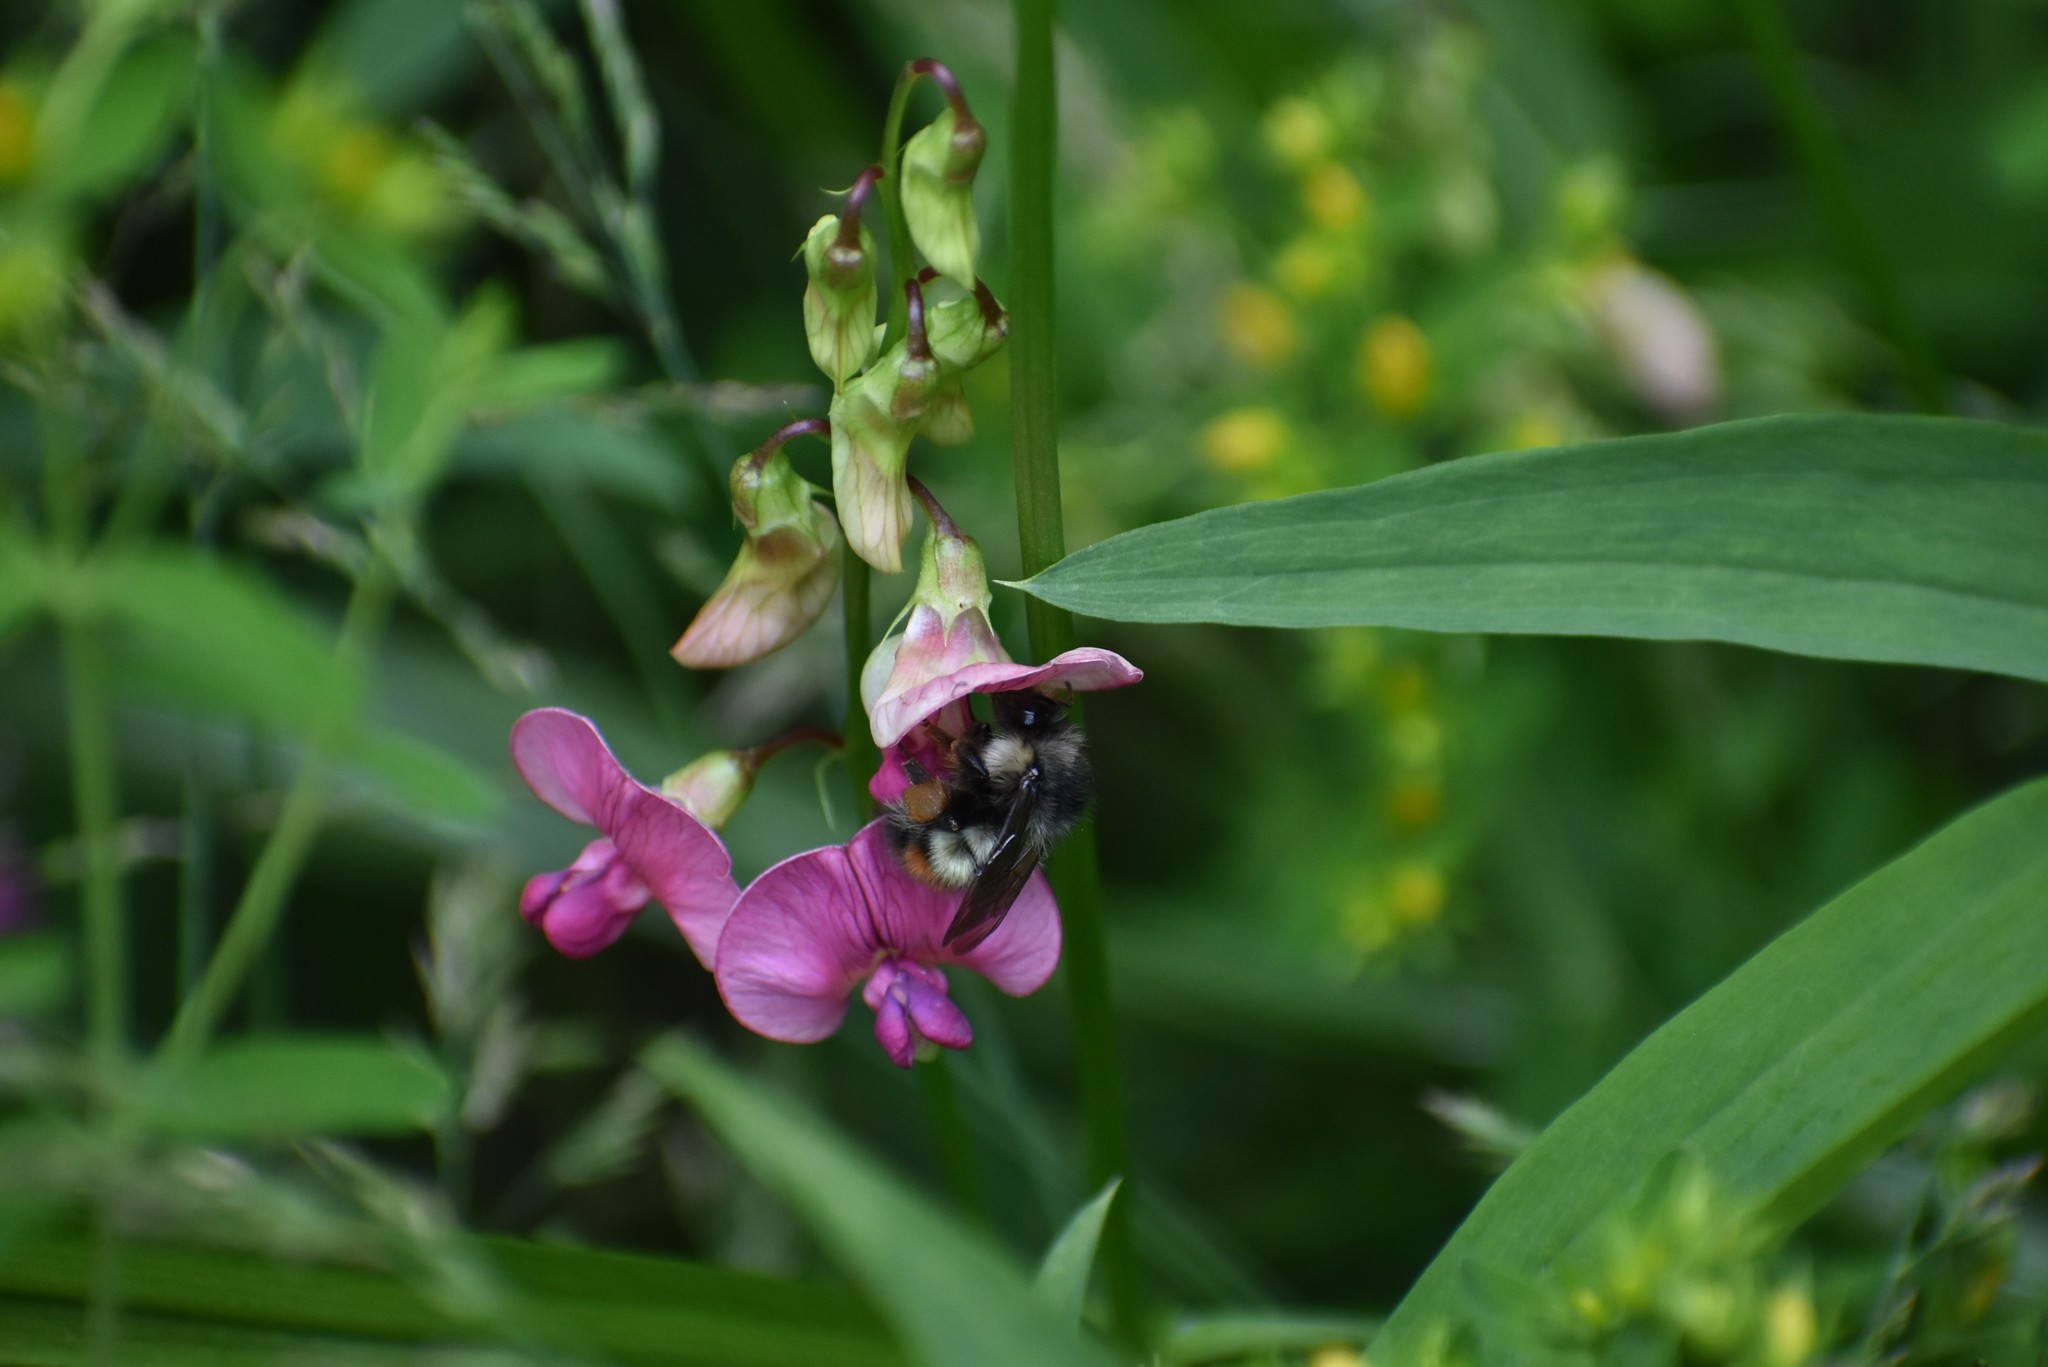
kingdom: Animalia
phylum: Arthropoda
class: Insecta
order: Hymenoptera
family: Apidae
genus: Bombus
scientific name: Bombus flavifrons
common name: Yellow head bumble bee
